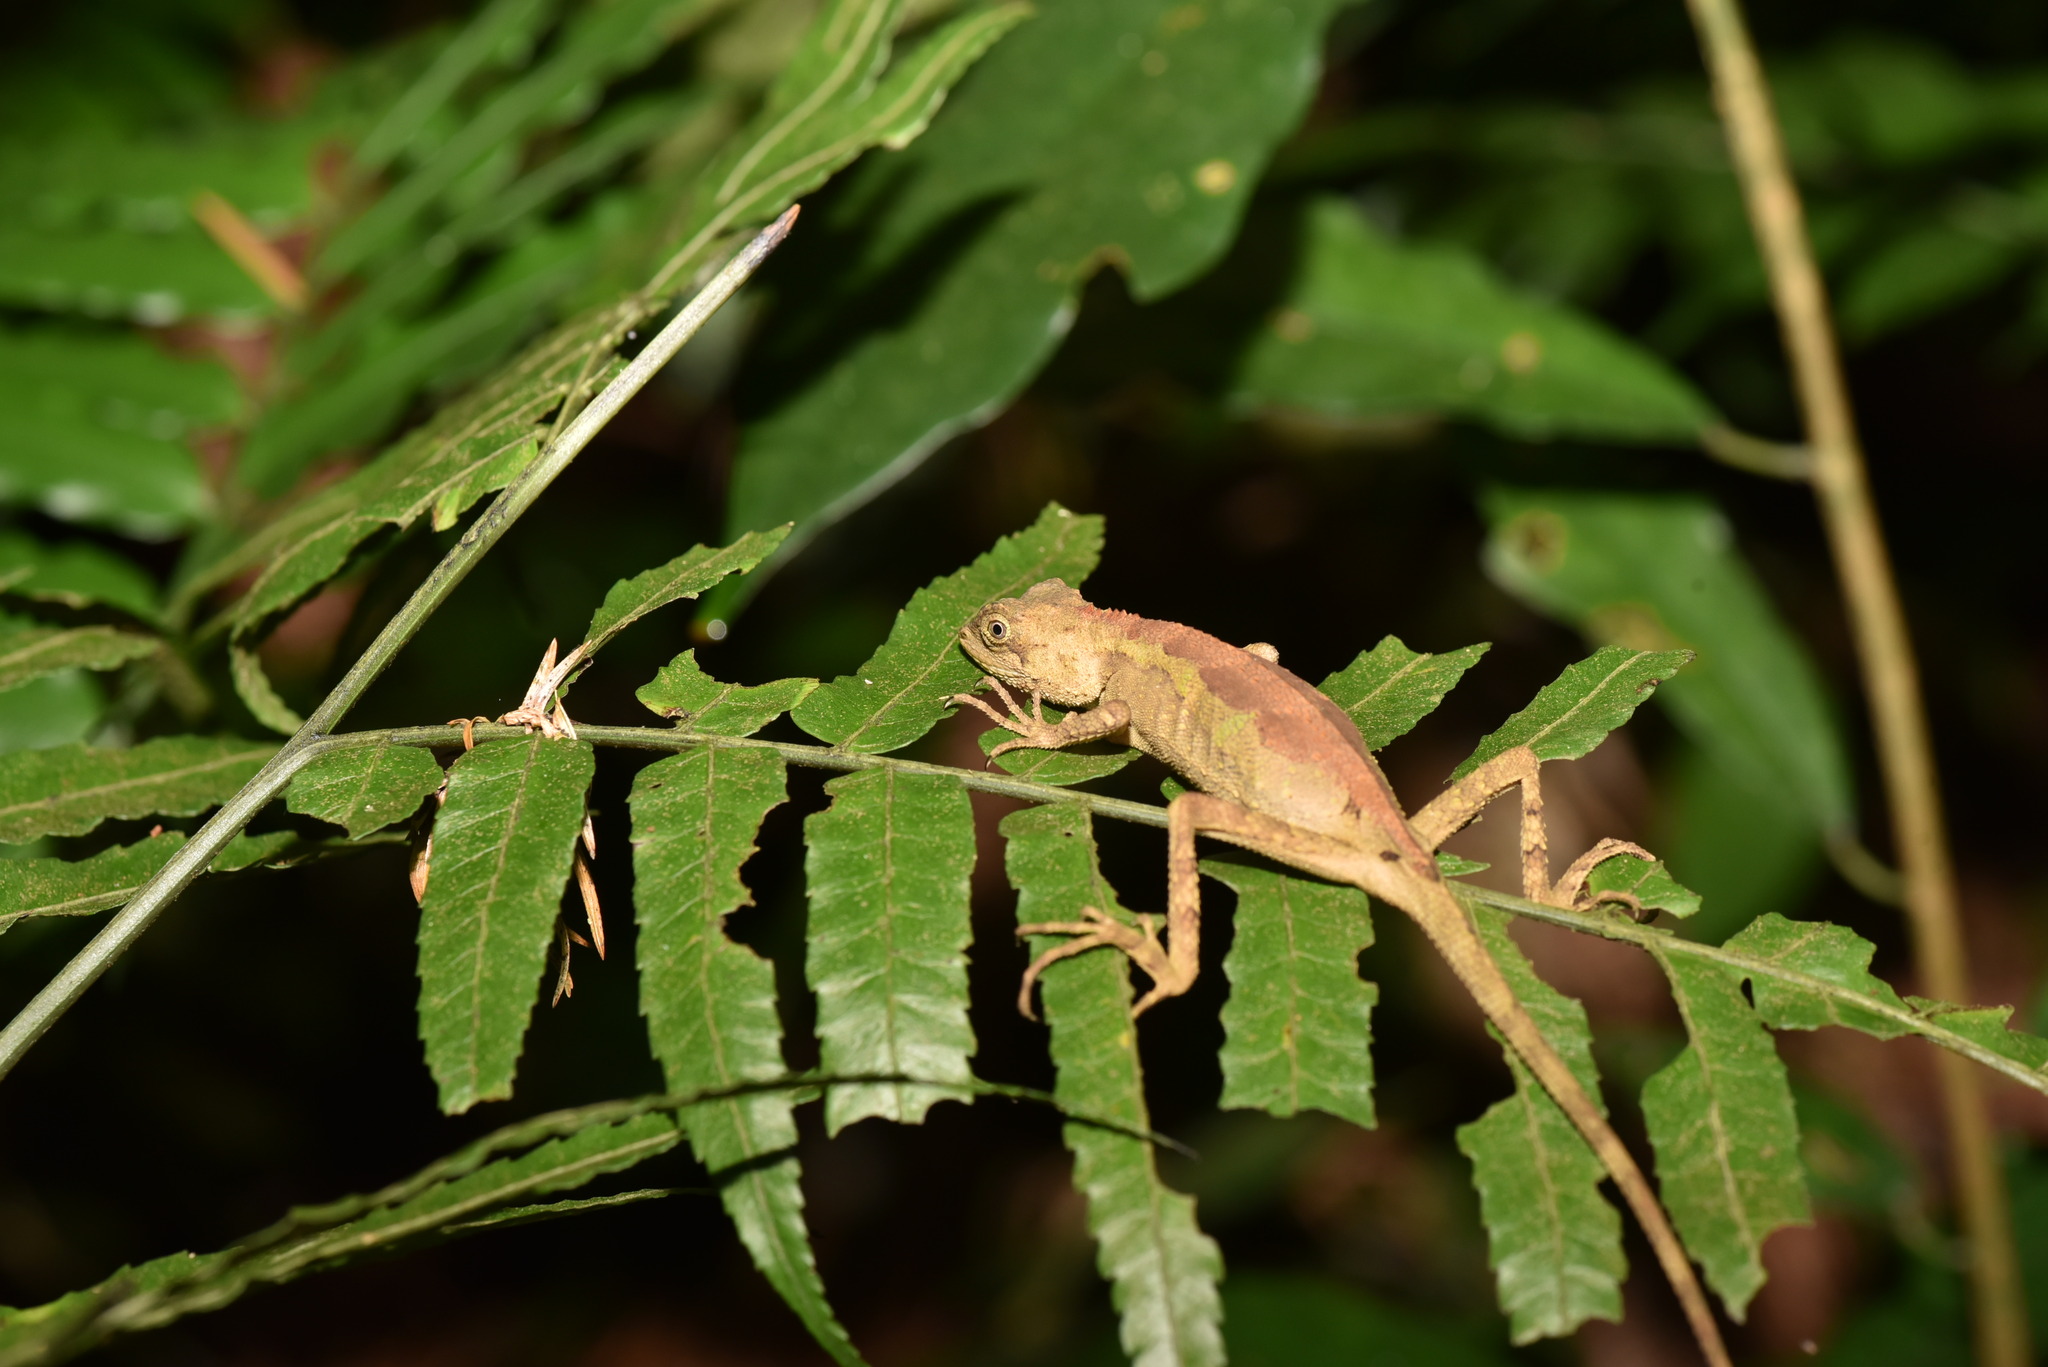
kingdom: Animalia
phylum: Chordata
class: Squamata
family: Agamidae
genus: Diploderma
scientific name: Diploderma swinhonis
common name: Taiwan japalure
